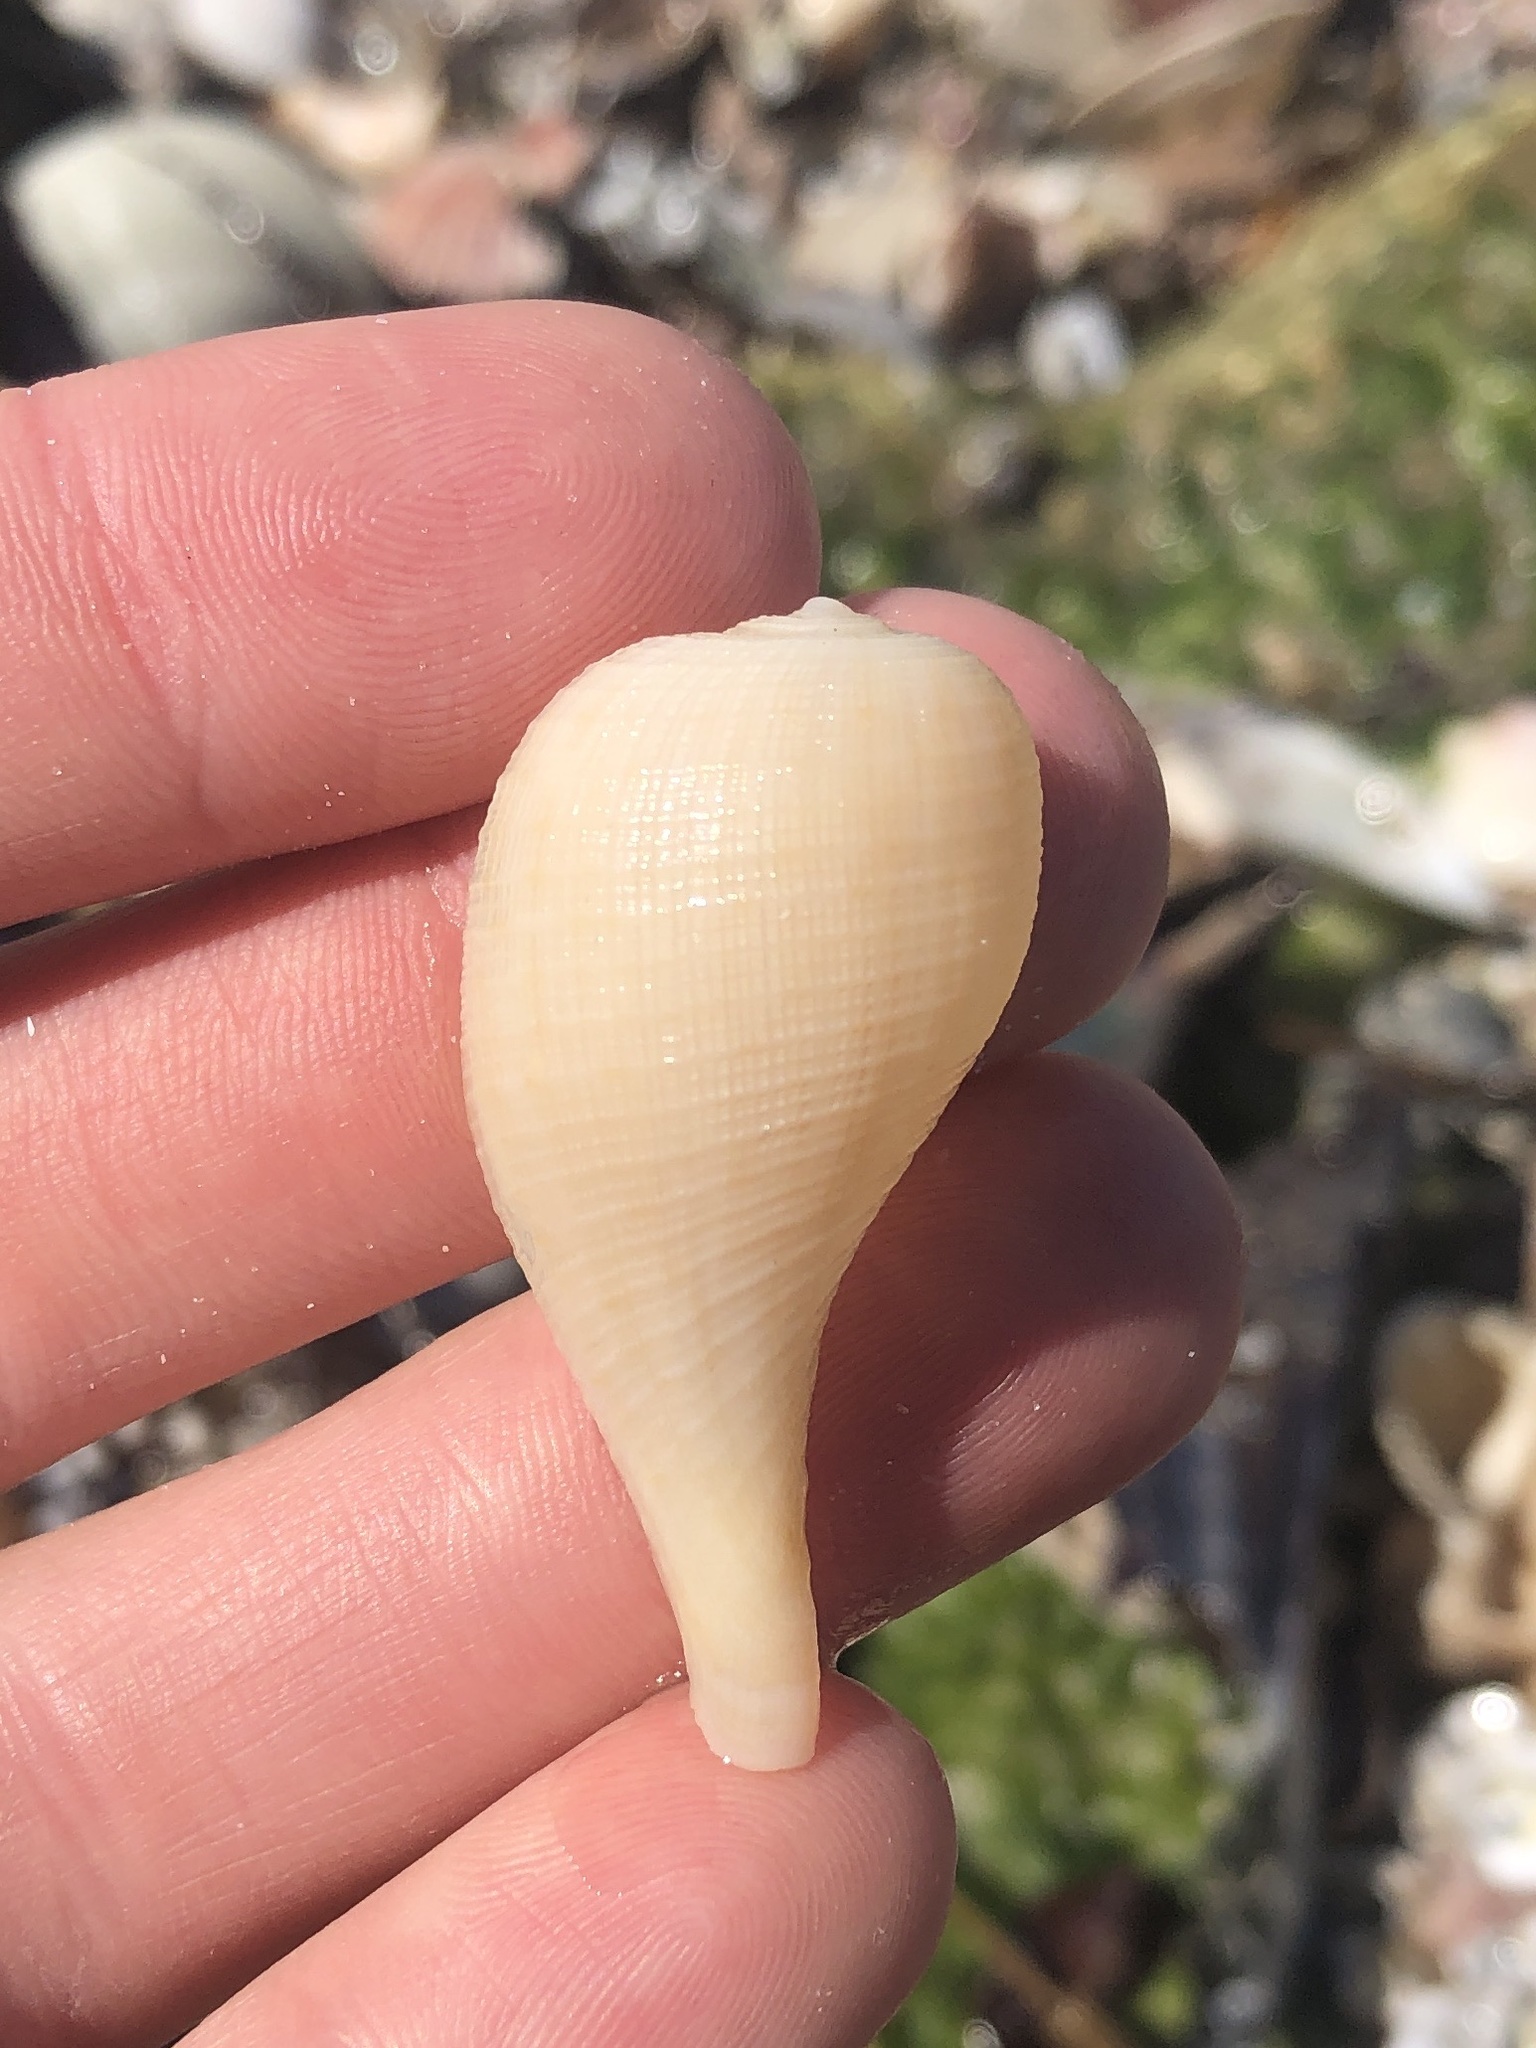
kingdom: Animalia
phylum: Mollusca
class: Gastropoda
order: Littorinimorpha
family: Ficidae
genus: Ficus
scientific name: Ficus papyratia
